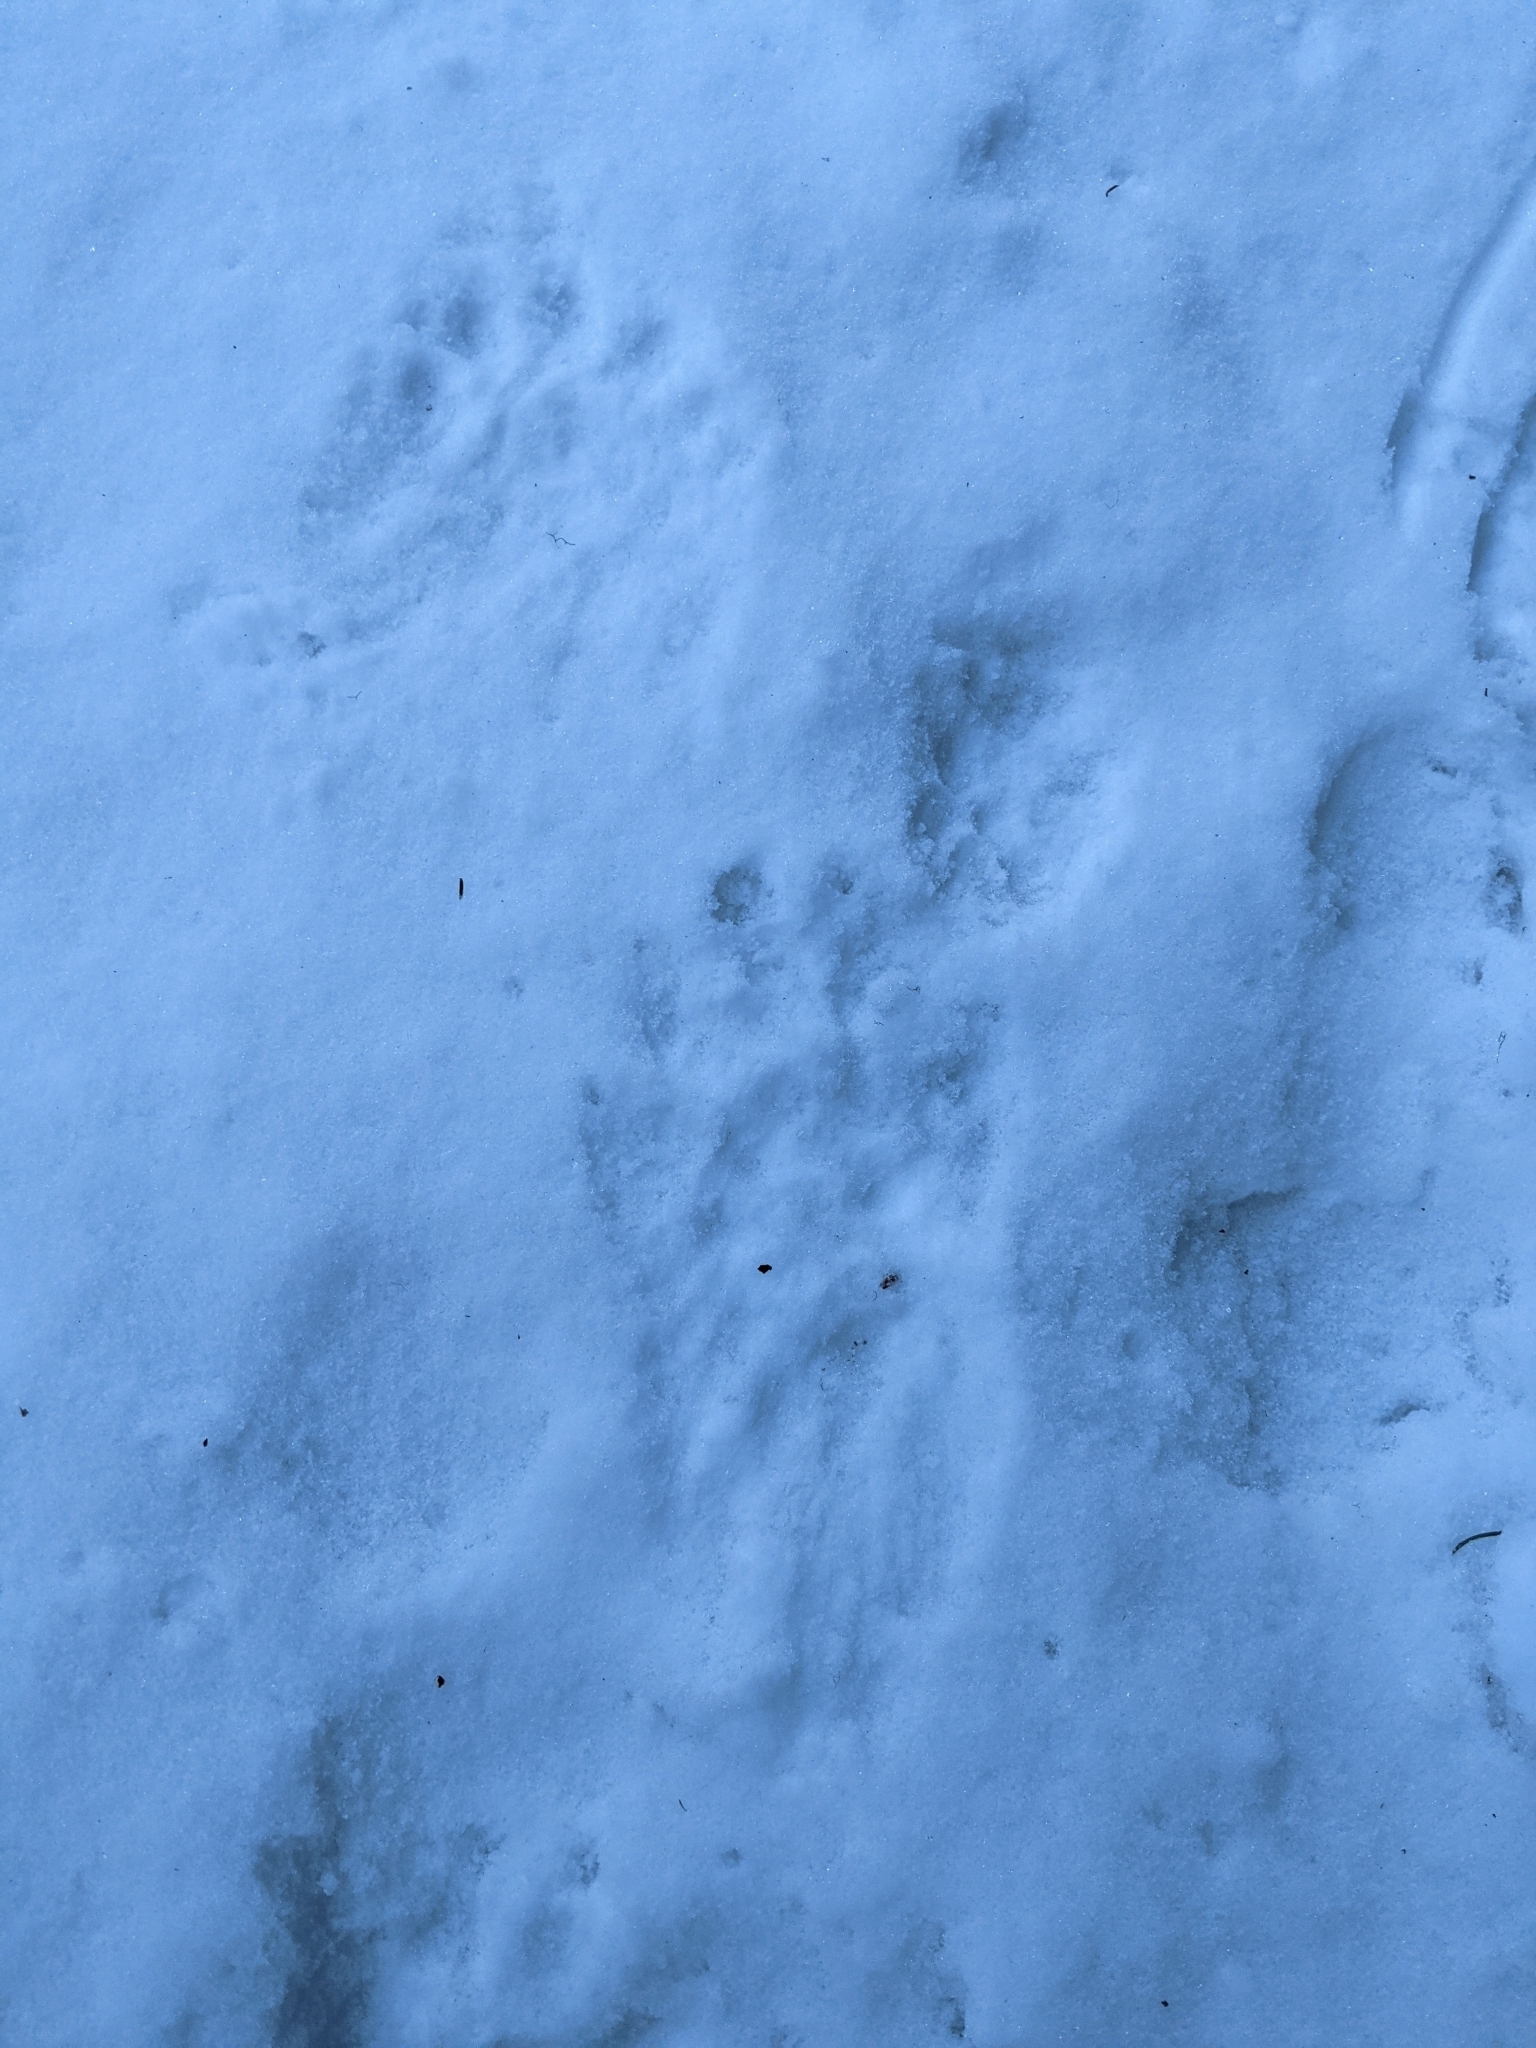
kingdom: Animalia
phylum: Chordata
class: Mammalia
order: Carnivora
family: Mustelidae
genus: Gulo
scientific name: Gulo gulo
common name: Wolverine
